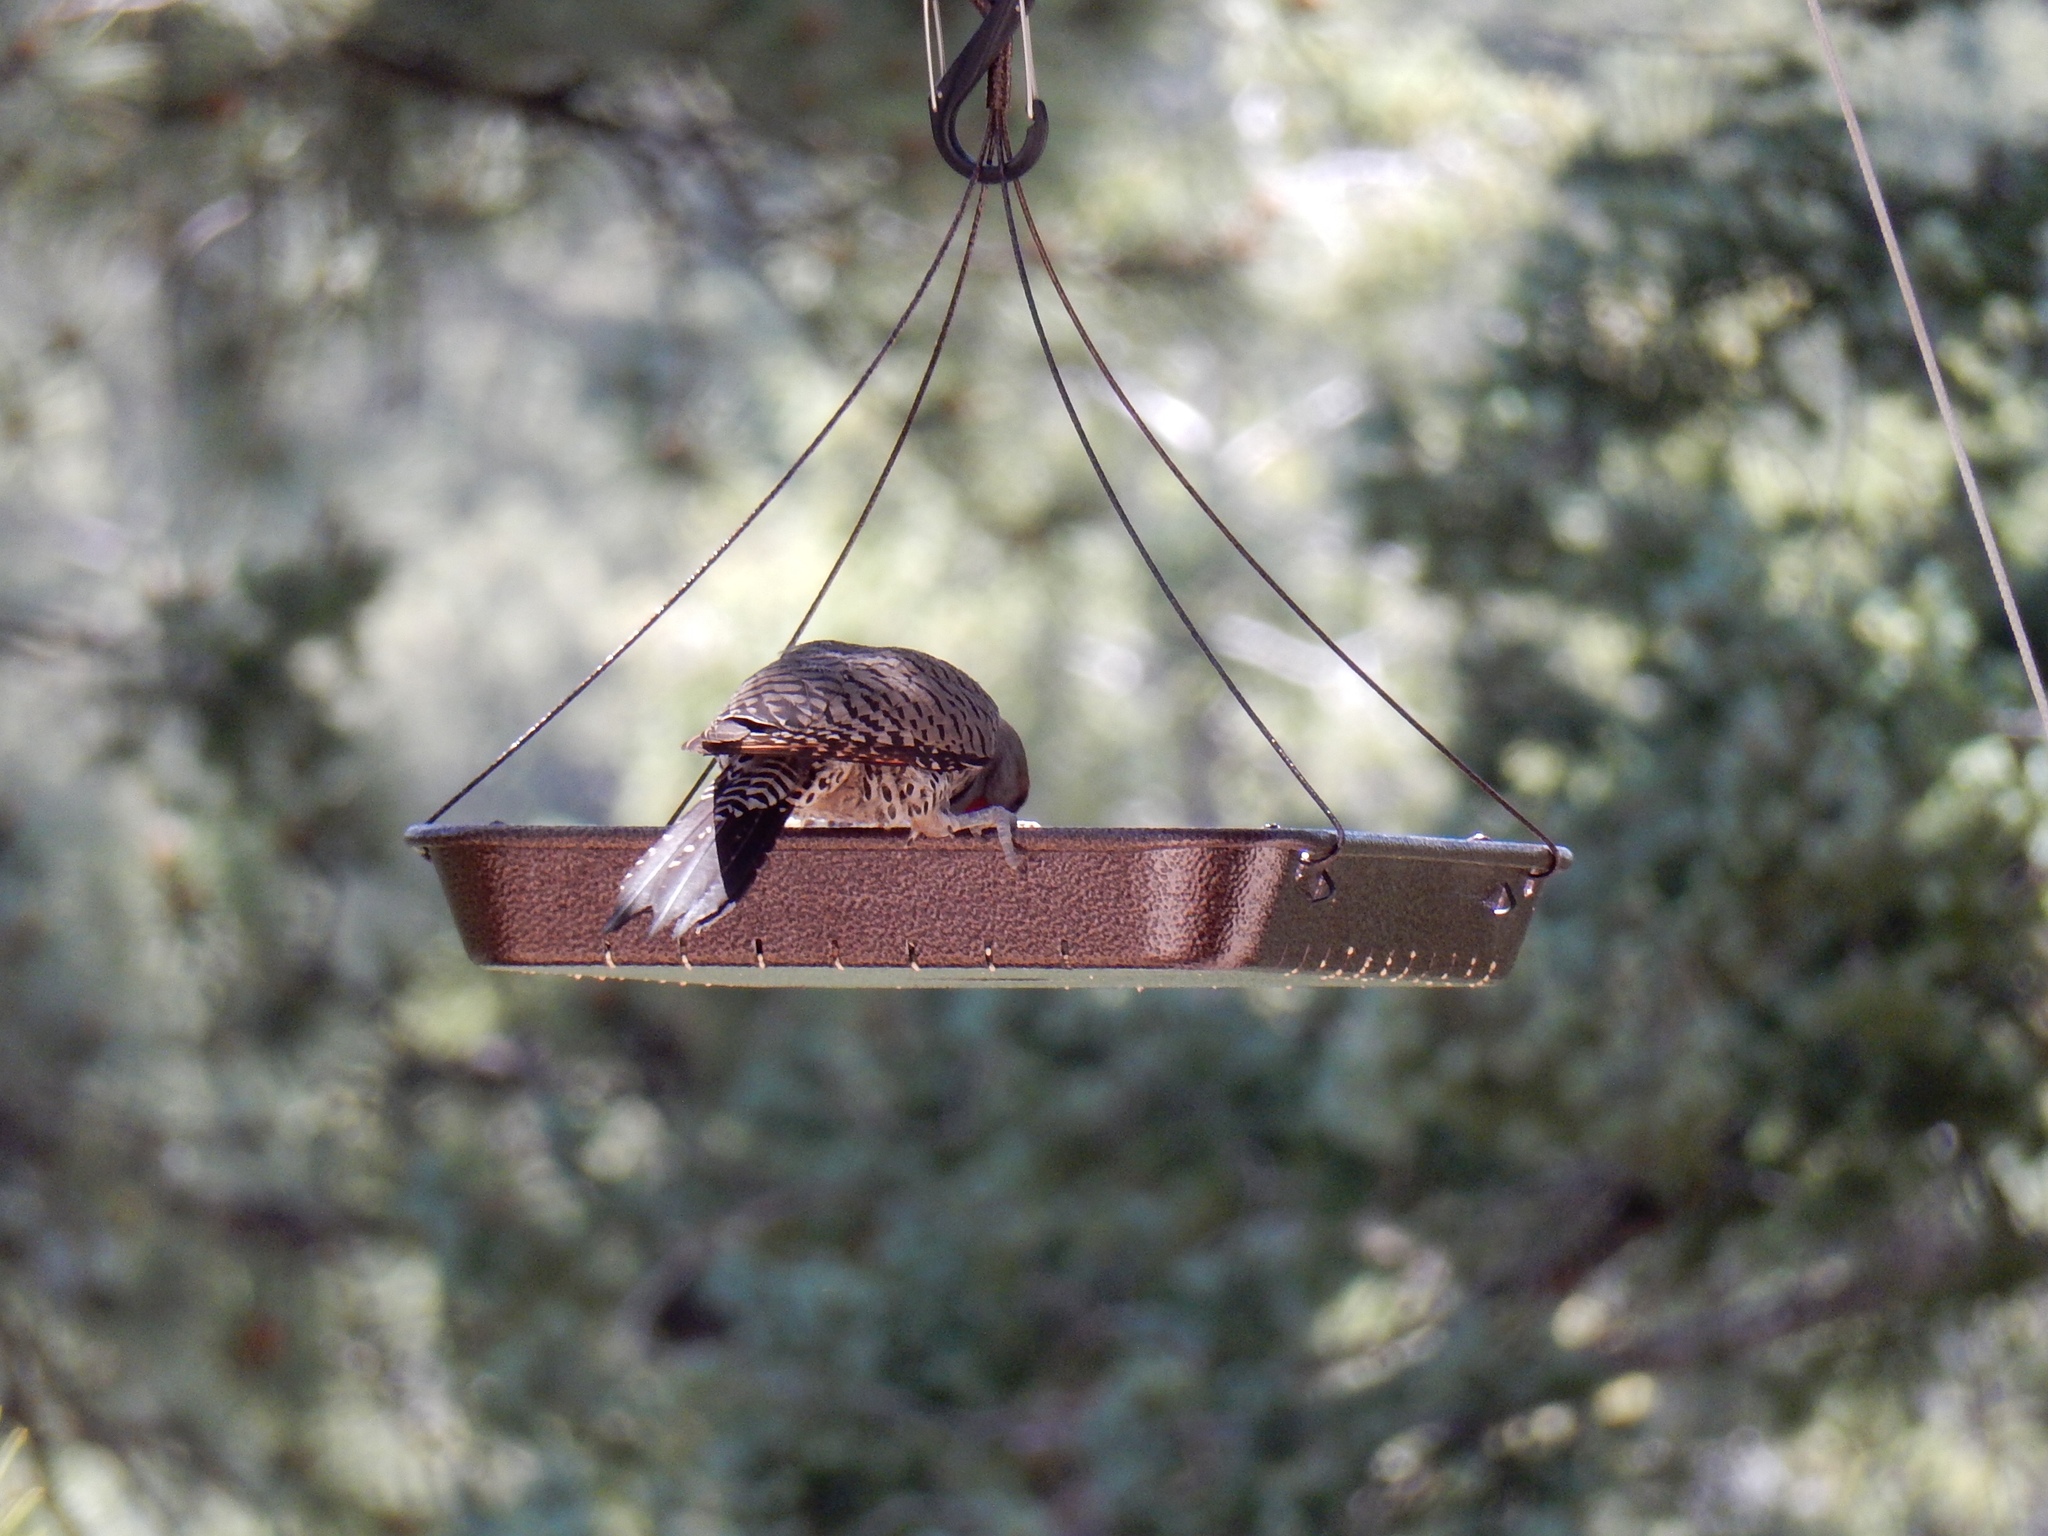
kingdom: Animalia
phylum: Chordata
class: Aves
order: Piciformes
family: Picidae
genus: Colaptes
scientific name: Colaptes auratus
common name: Northern flicker
